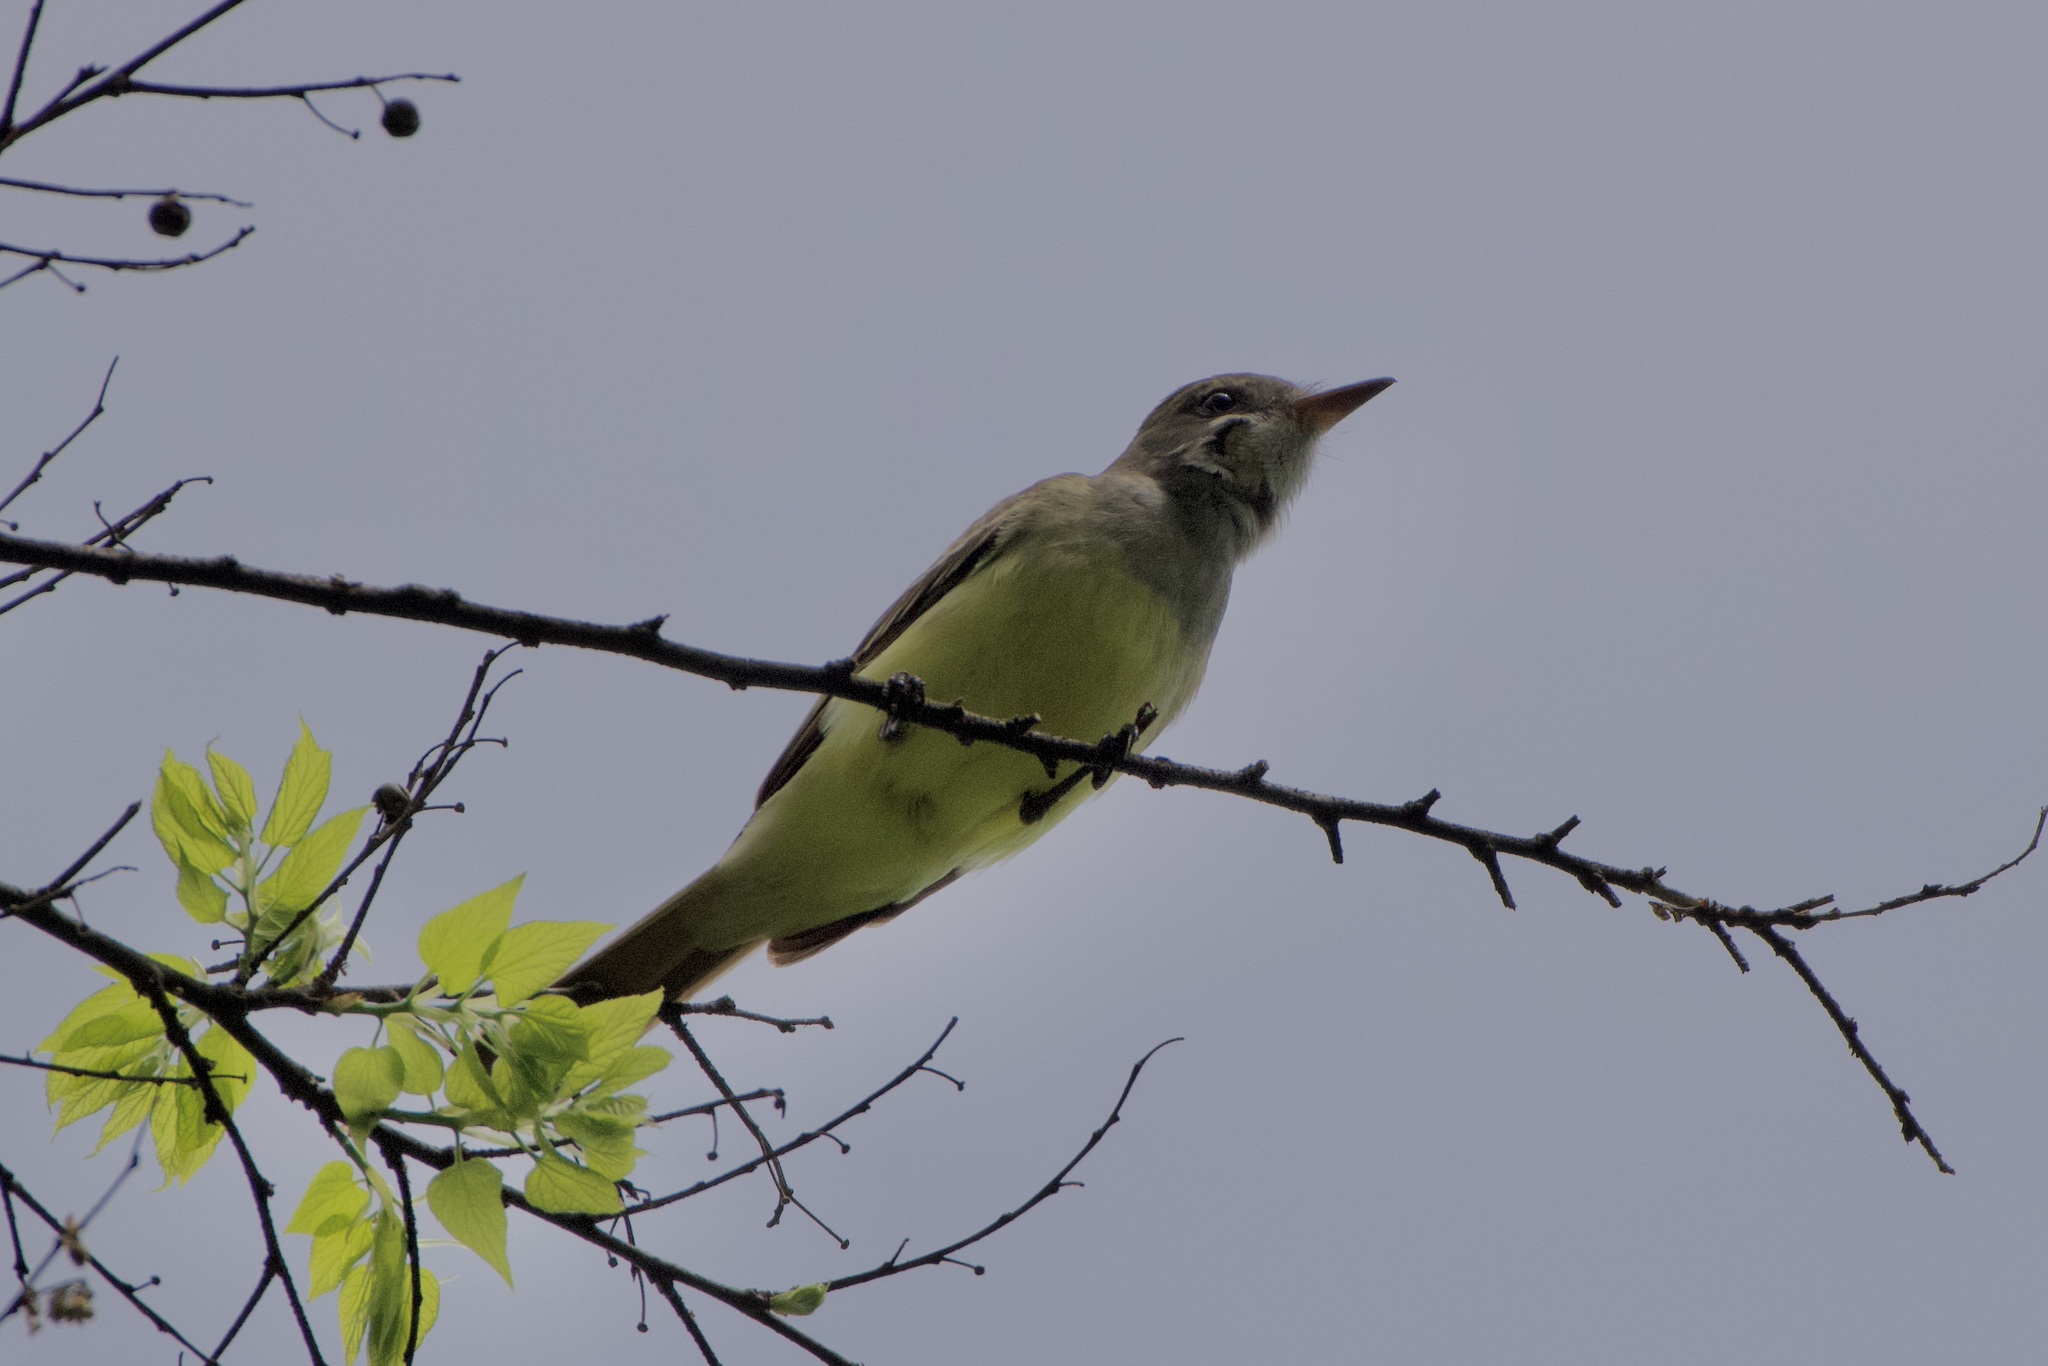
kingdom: Animalia
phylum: Chordata
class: Aves
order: Passeriformes
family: Tyrannidae
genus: Myiarchus
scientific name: Myiarchus crinitus
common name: Great crested flycatcher
